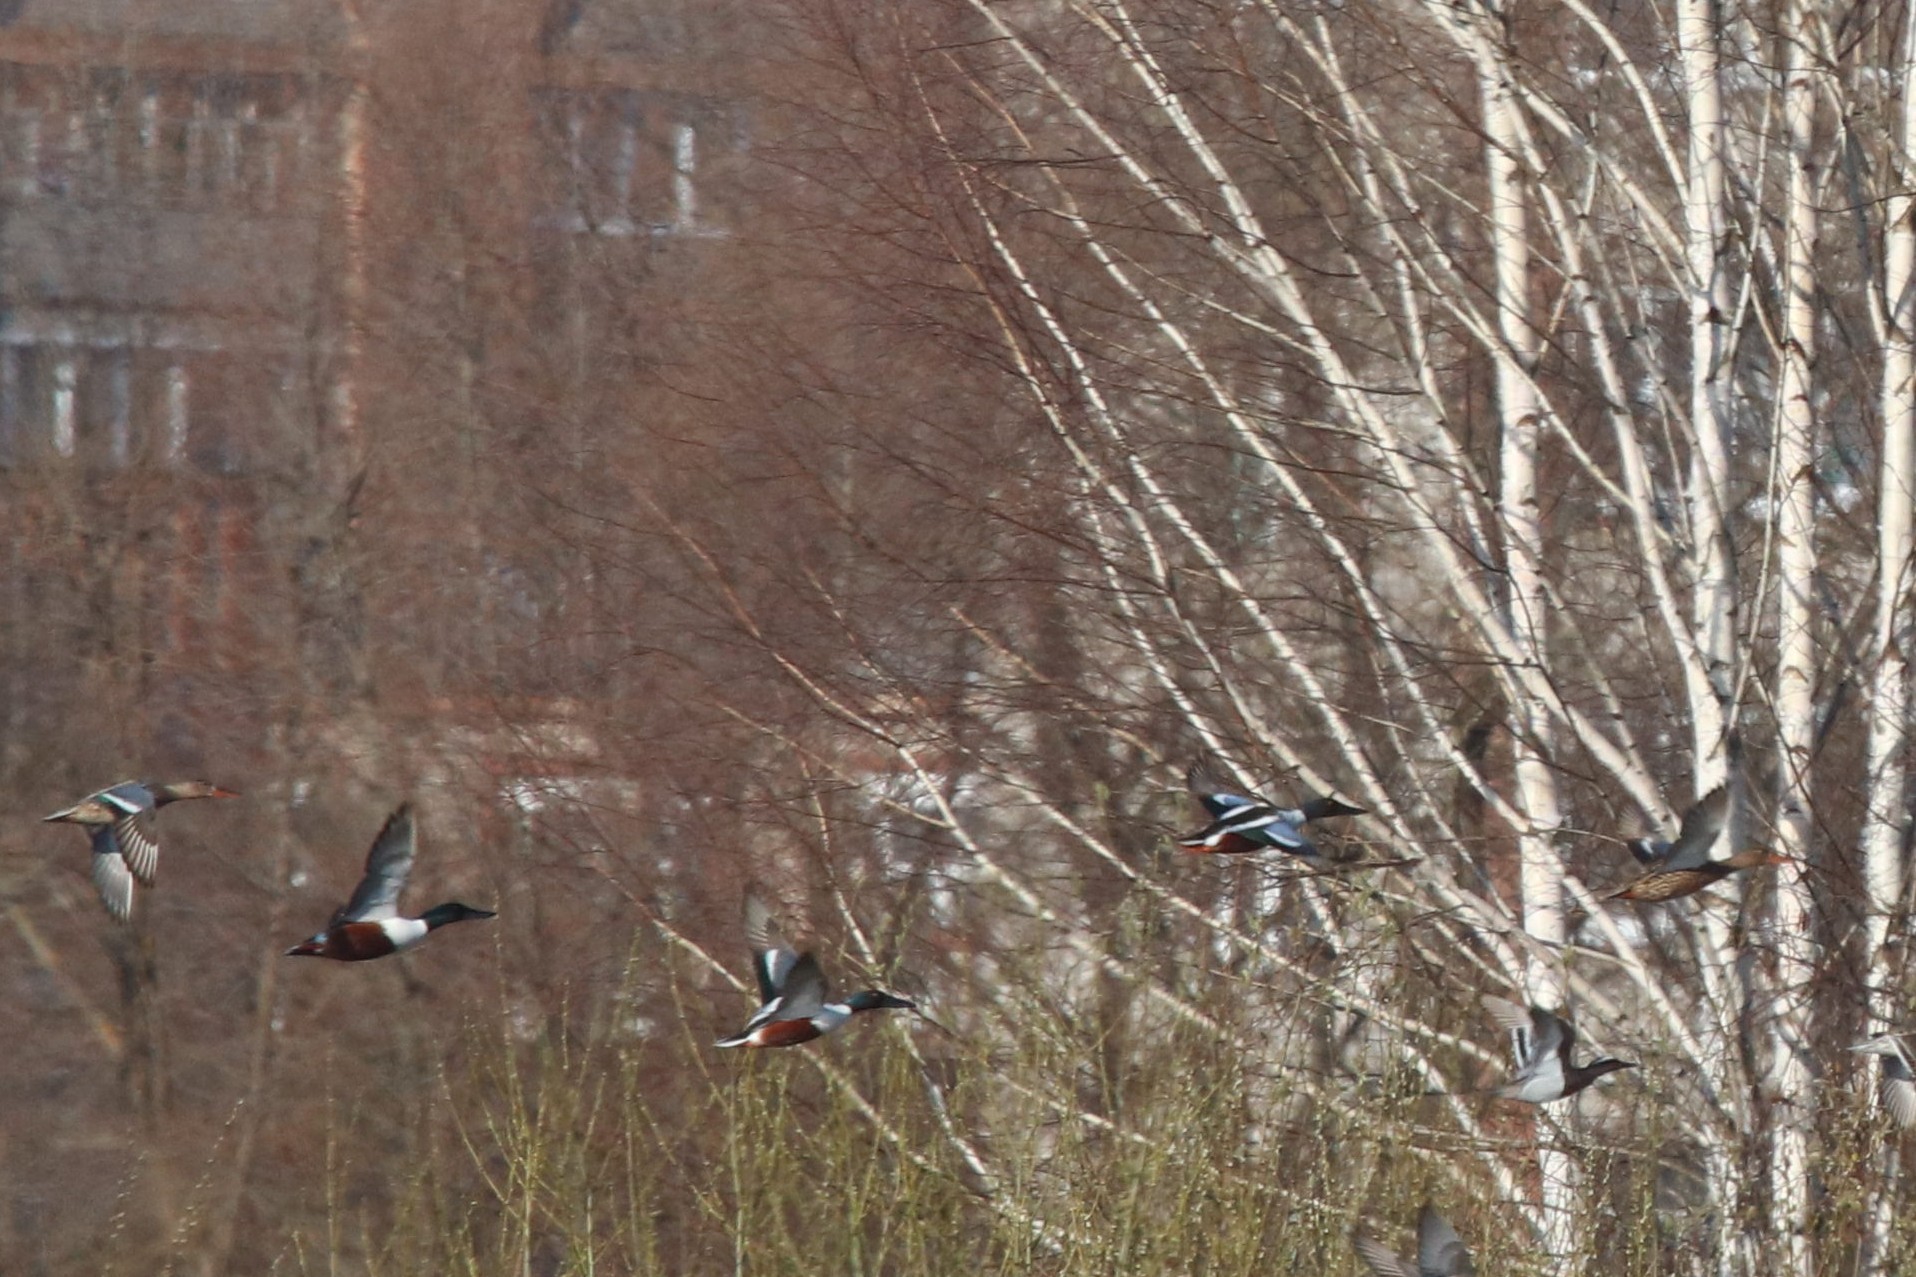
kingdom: Animalia
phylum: Chordata
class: Aves
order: Anseriformes
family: Anatidae
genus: Spatula
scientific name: Spatula clypeata
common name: Northern shoveler
